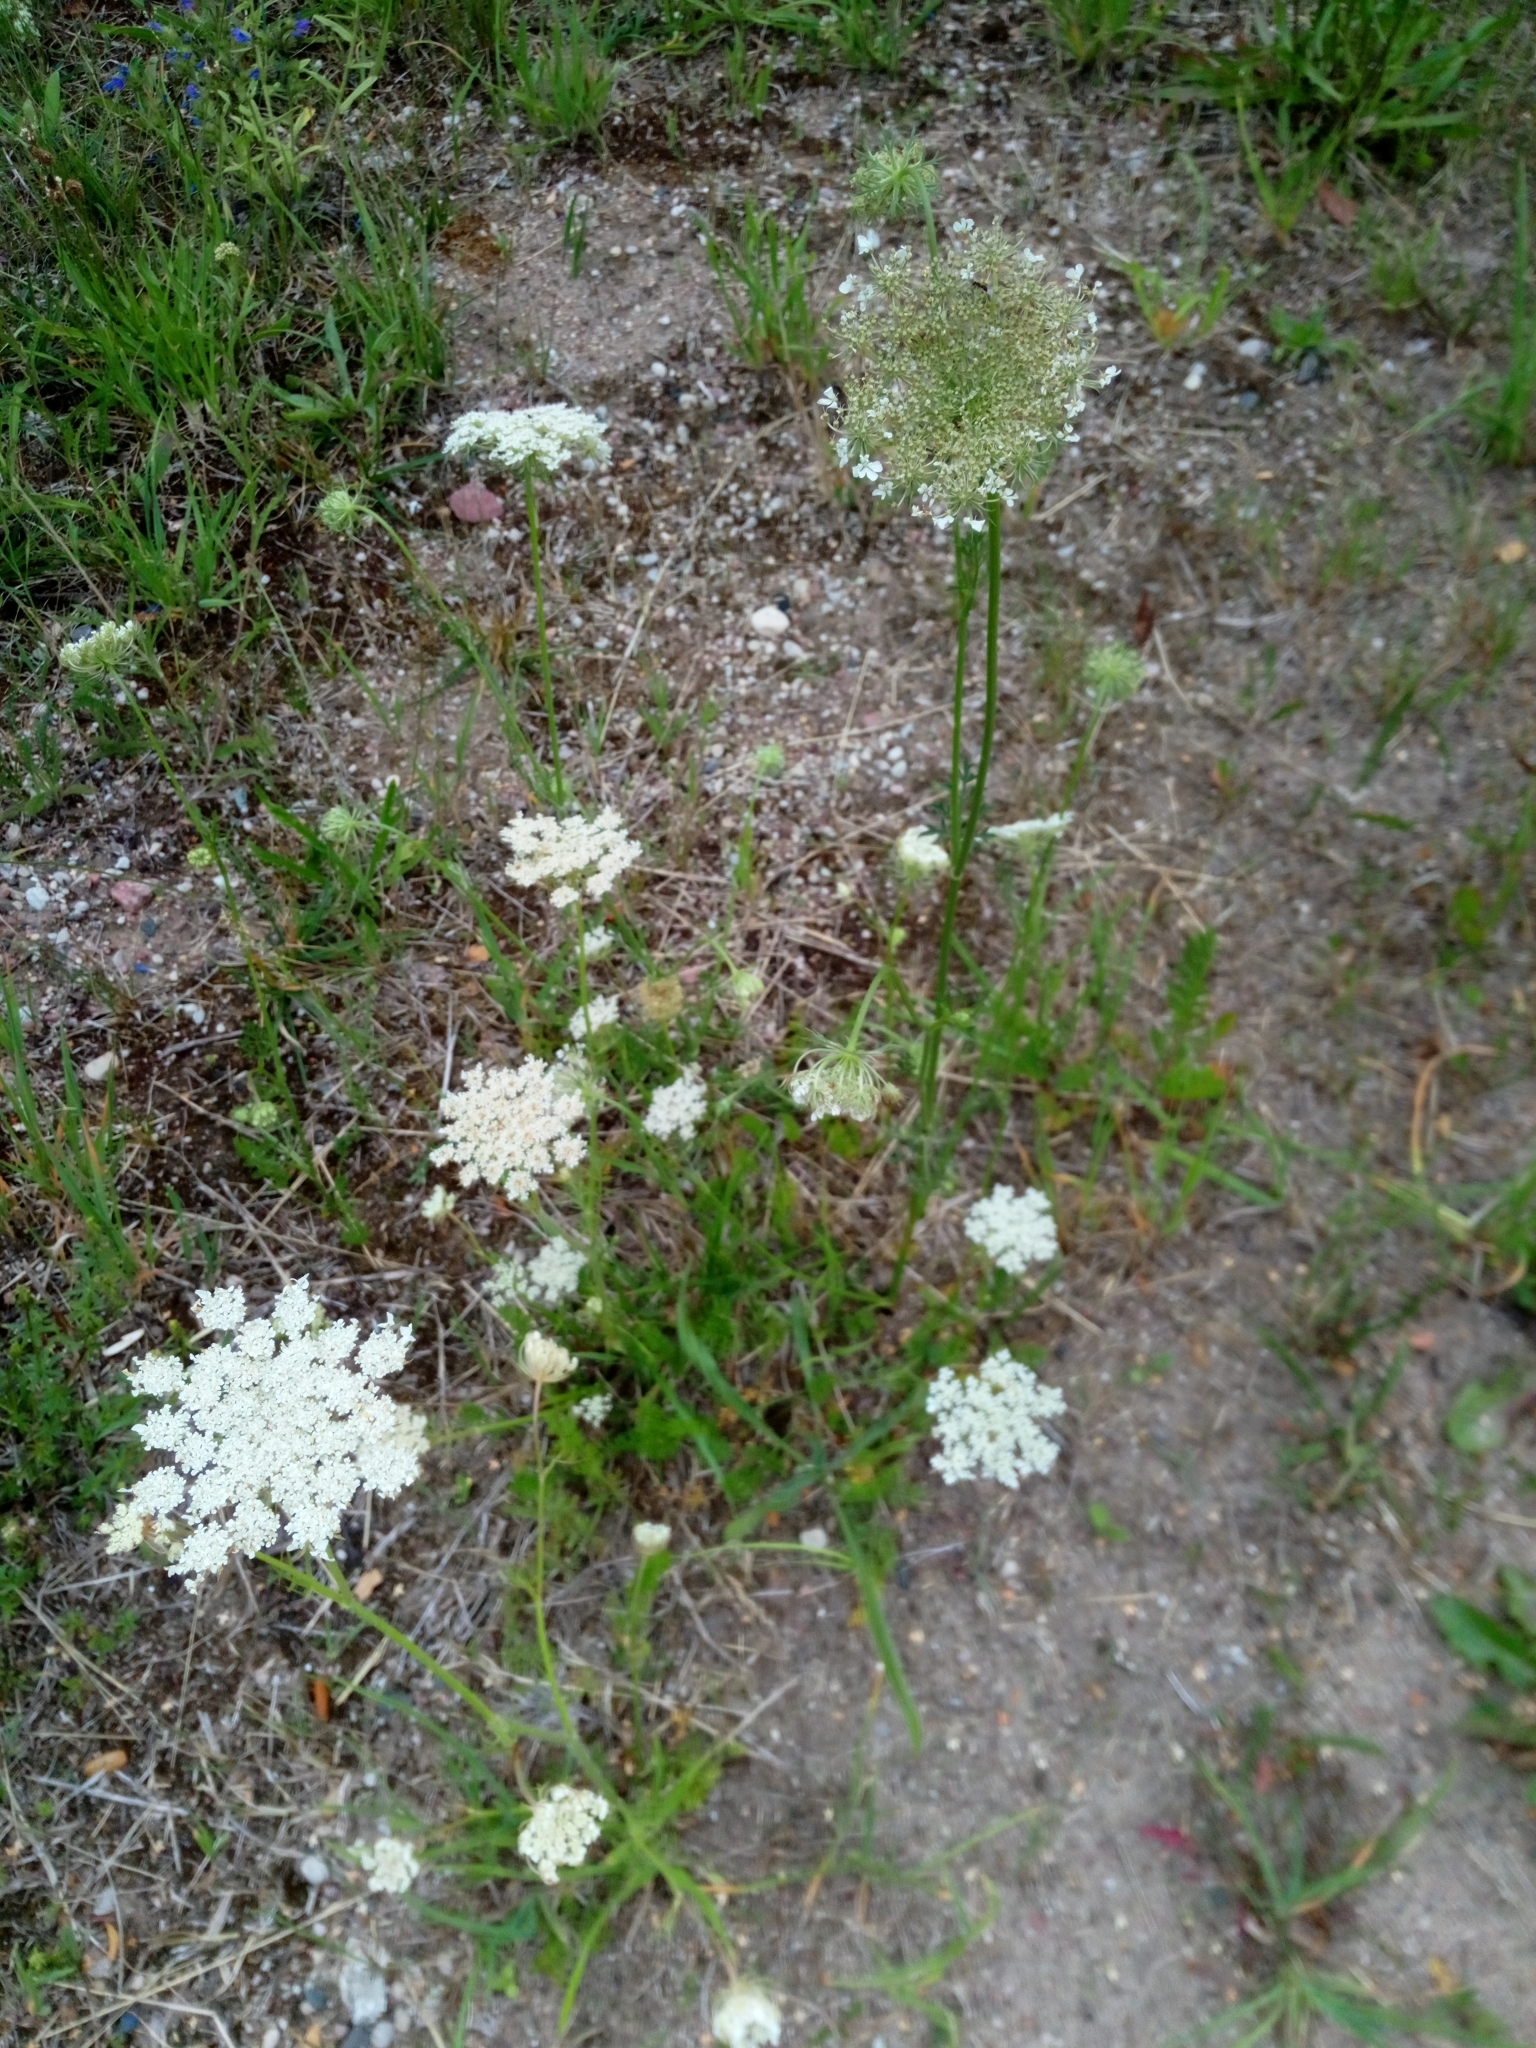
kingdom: Plantae
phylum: Tracheophyta
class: Magnoliopsida
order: Apiales
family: Apiaceae
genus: Daucus
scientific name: Daucus carota
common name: Wild carrot
